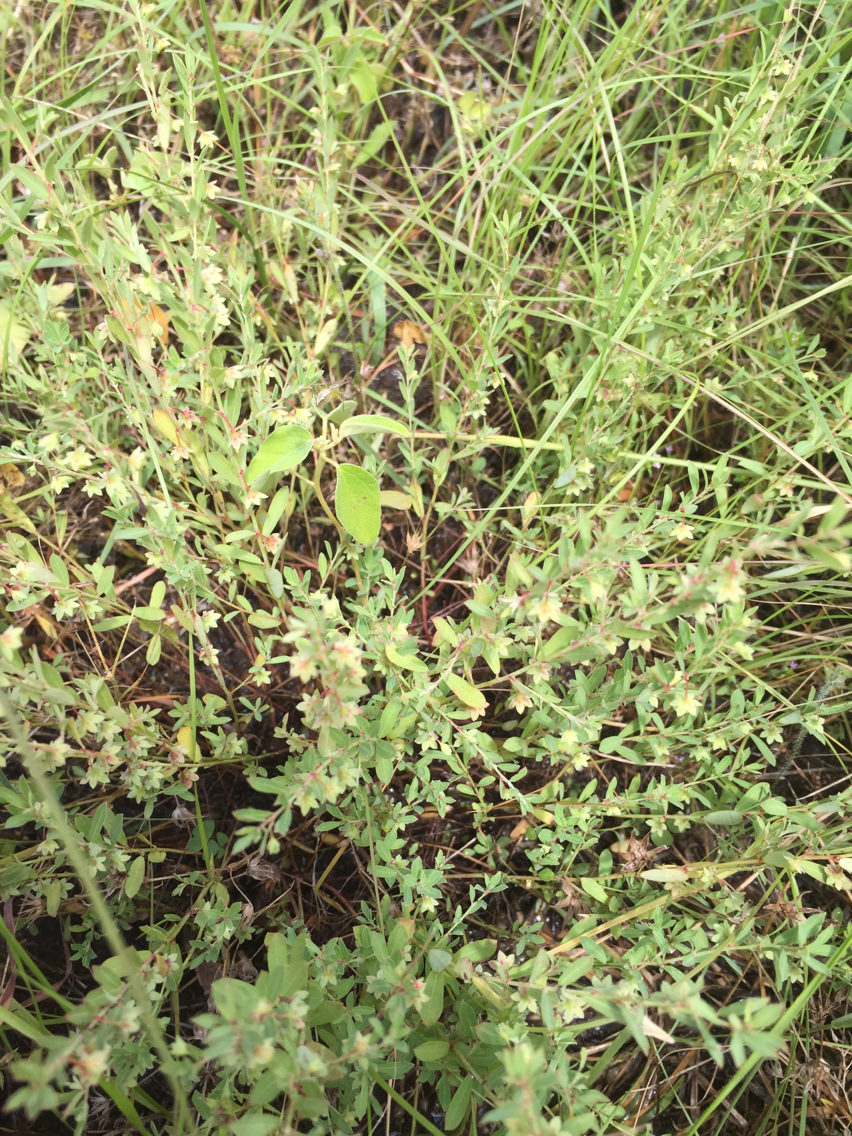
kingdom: Plantae
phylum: Tracheophyta
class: Magnoliopsida
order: Malpighiales
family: Phyllanthaceae
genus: Phyllanthus
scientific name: Phyllanthus polygonoides
